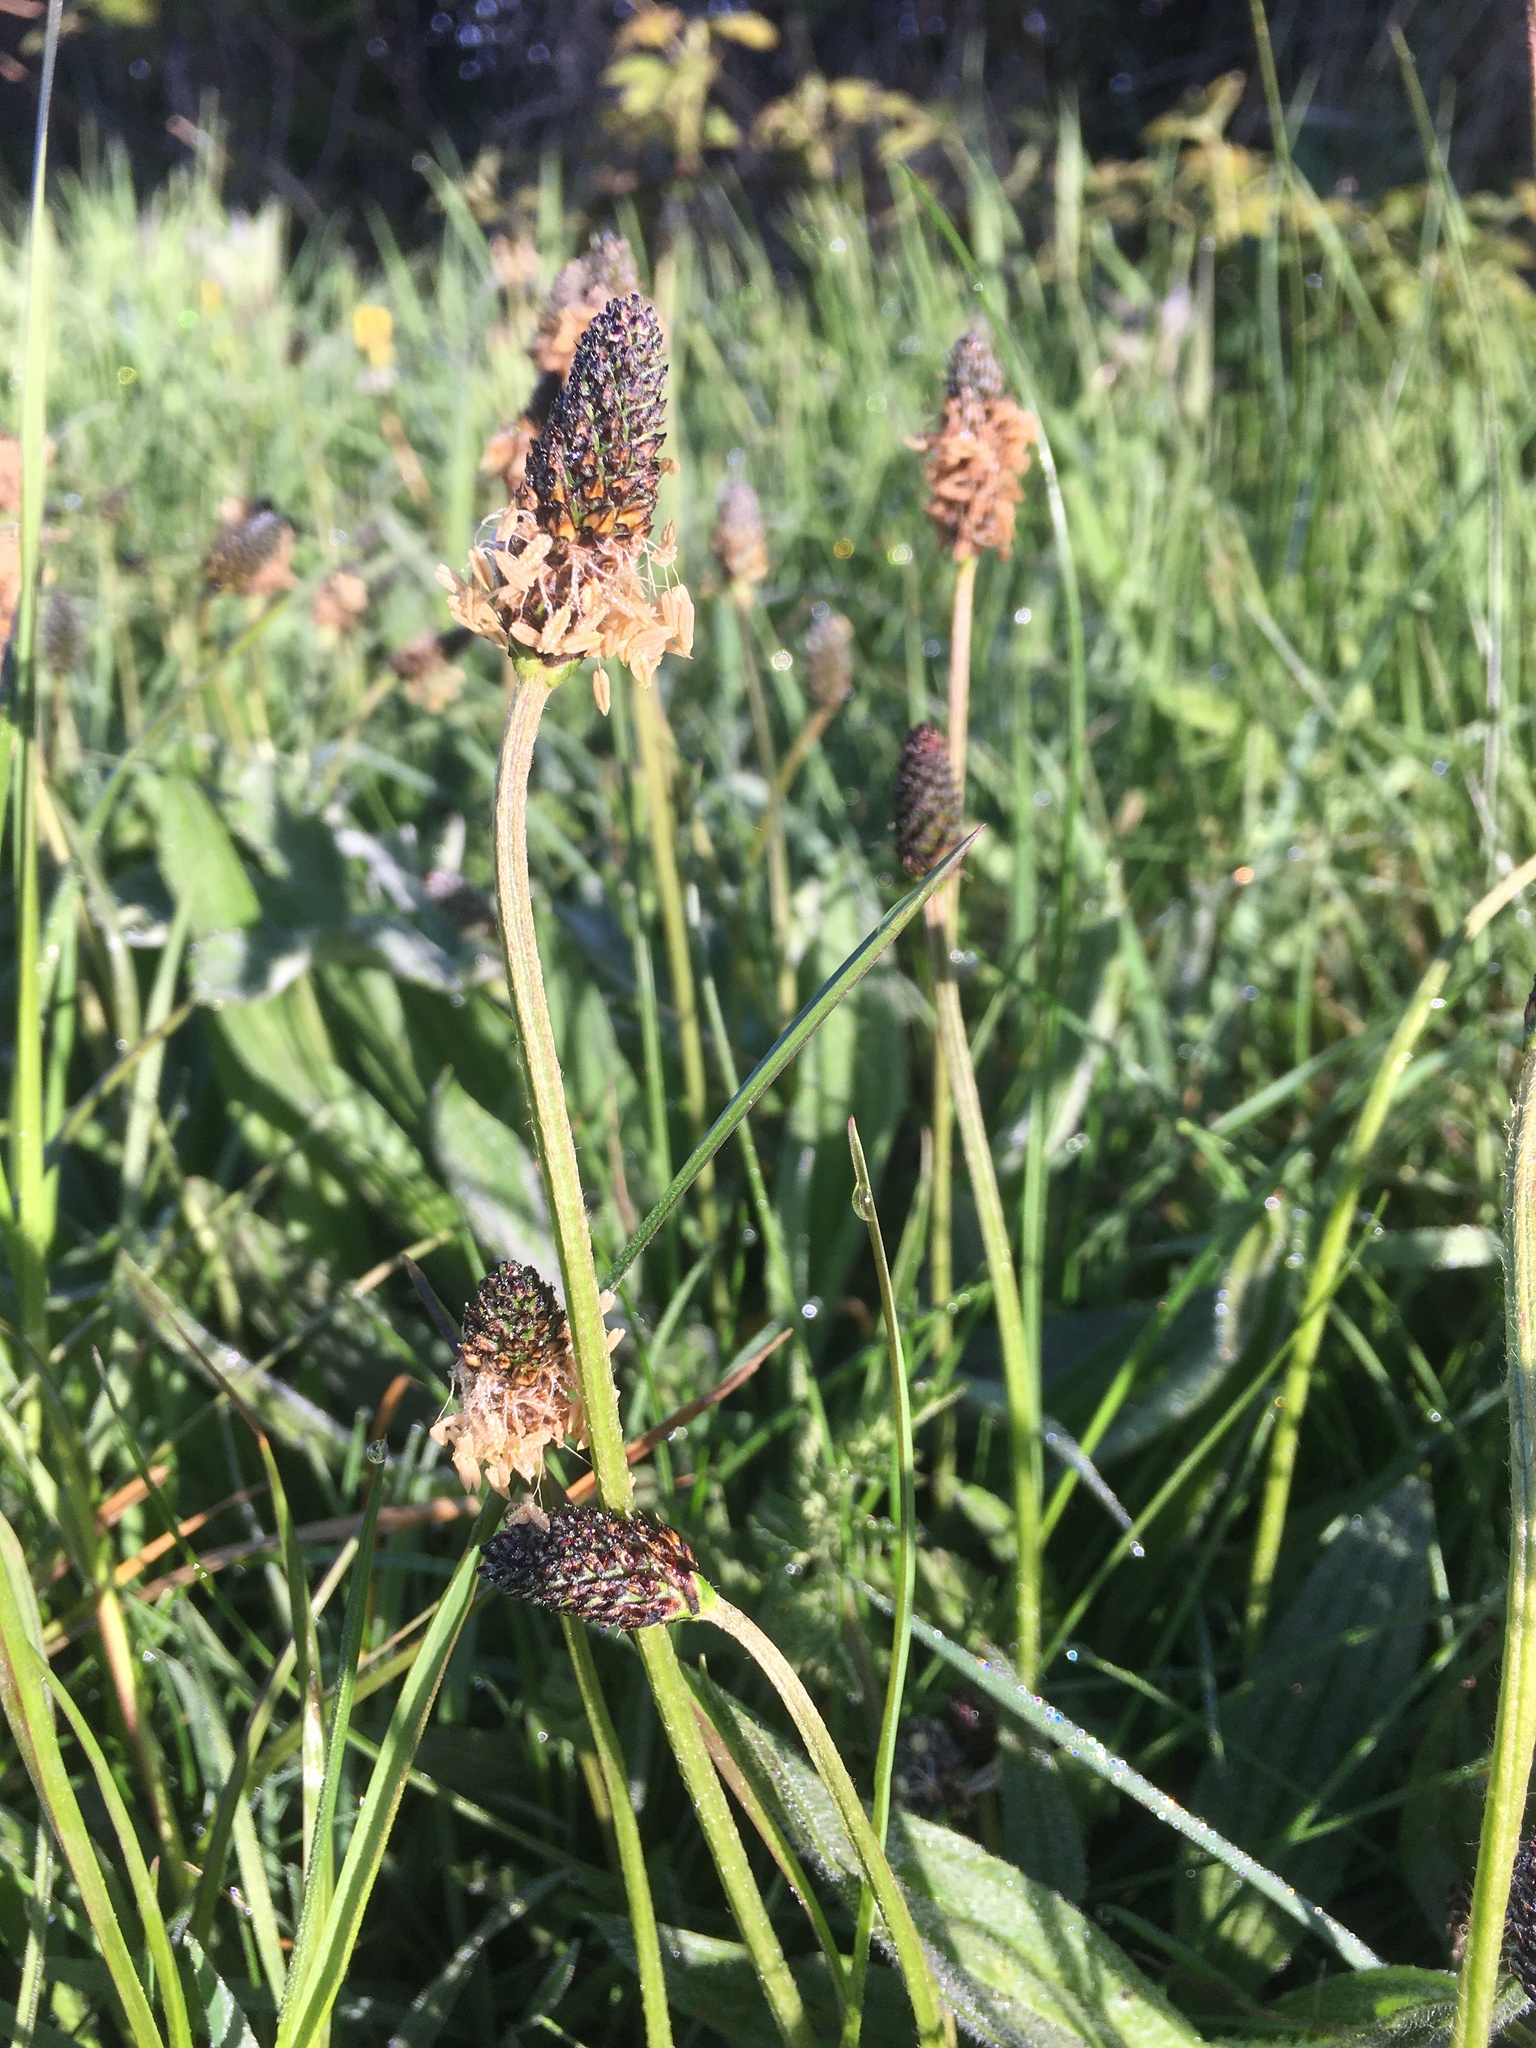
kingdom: Plantae
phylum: Tracheophyta
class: Magnoliopsida
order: Lamiales
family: Plantaginaceae
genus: Plantago
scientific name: Plantago lanceolata
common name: Ribwort plantain
